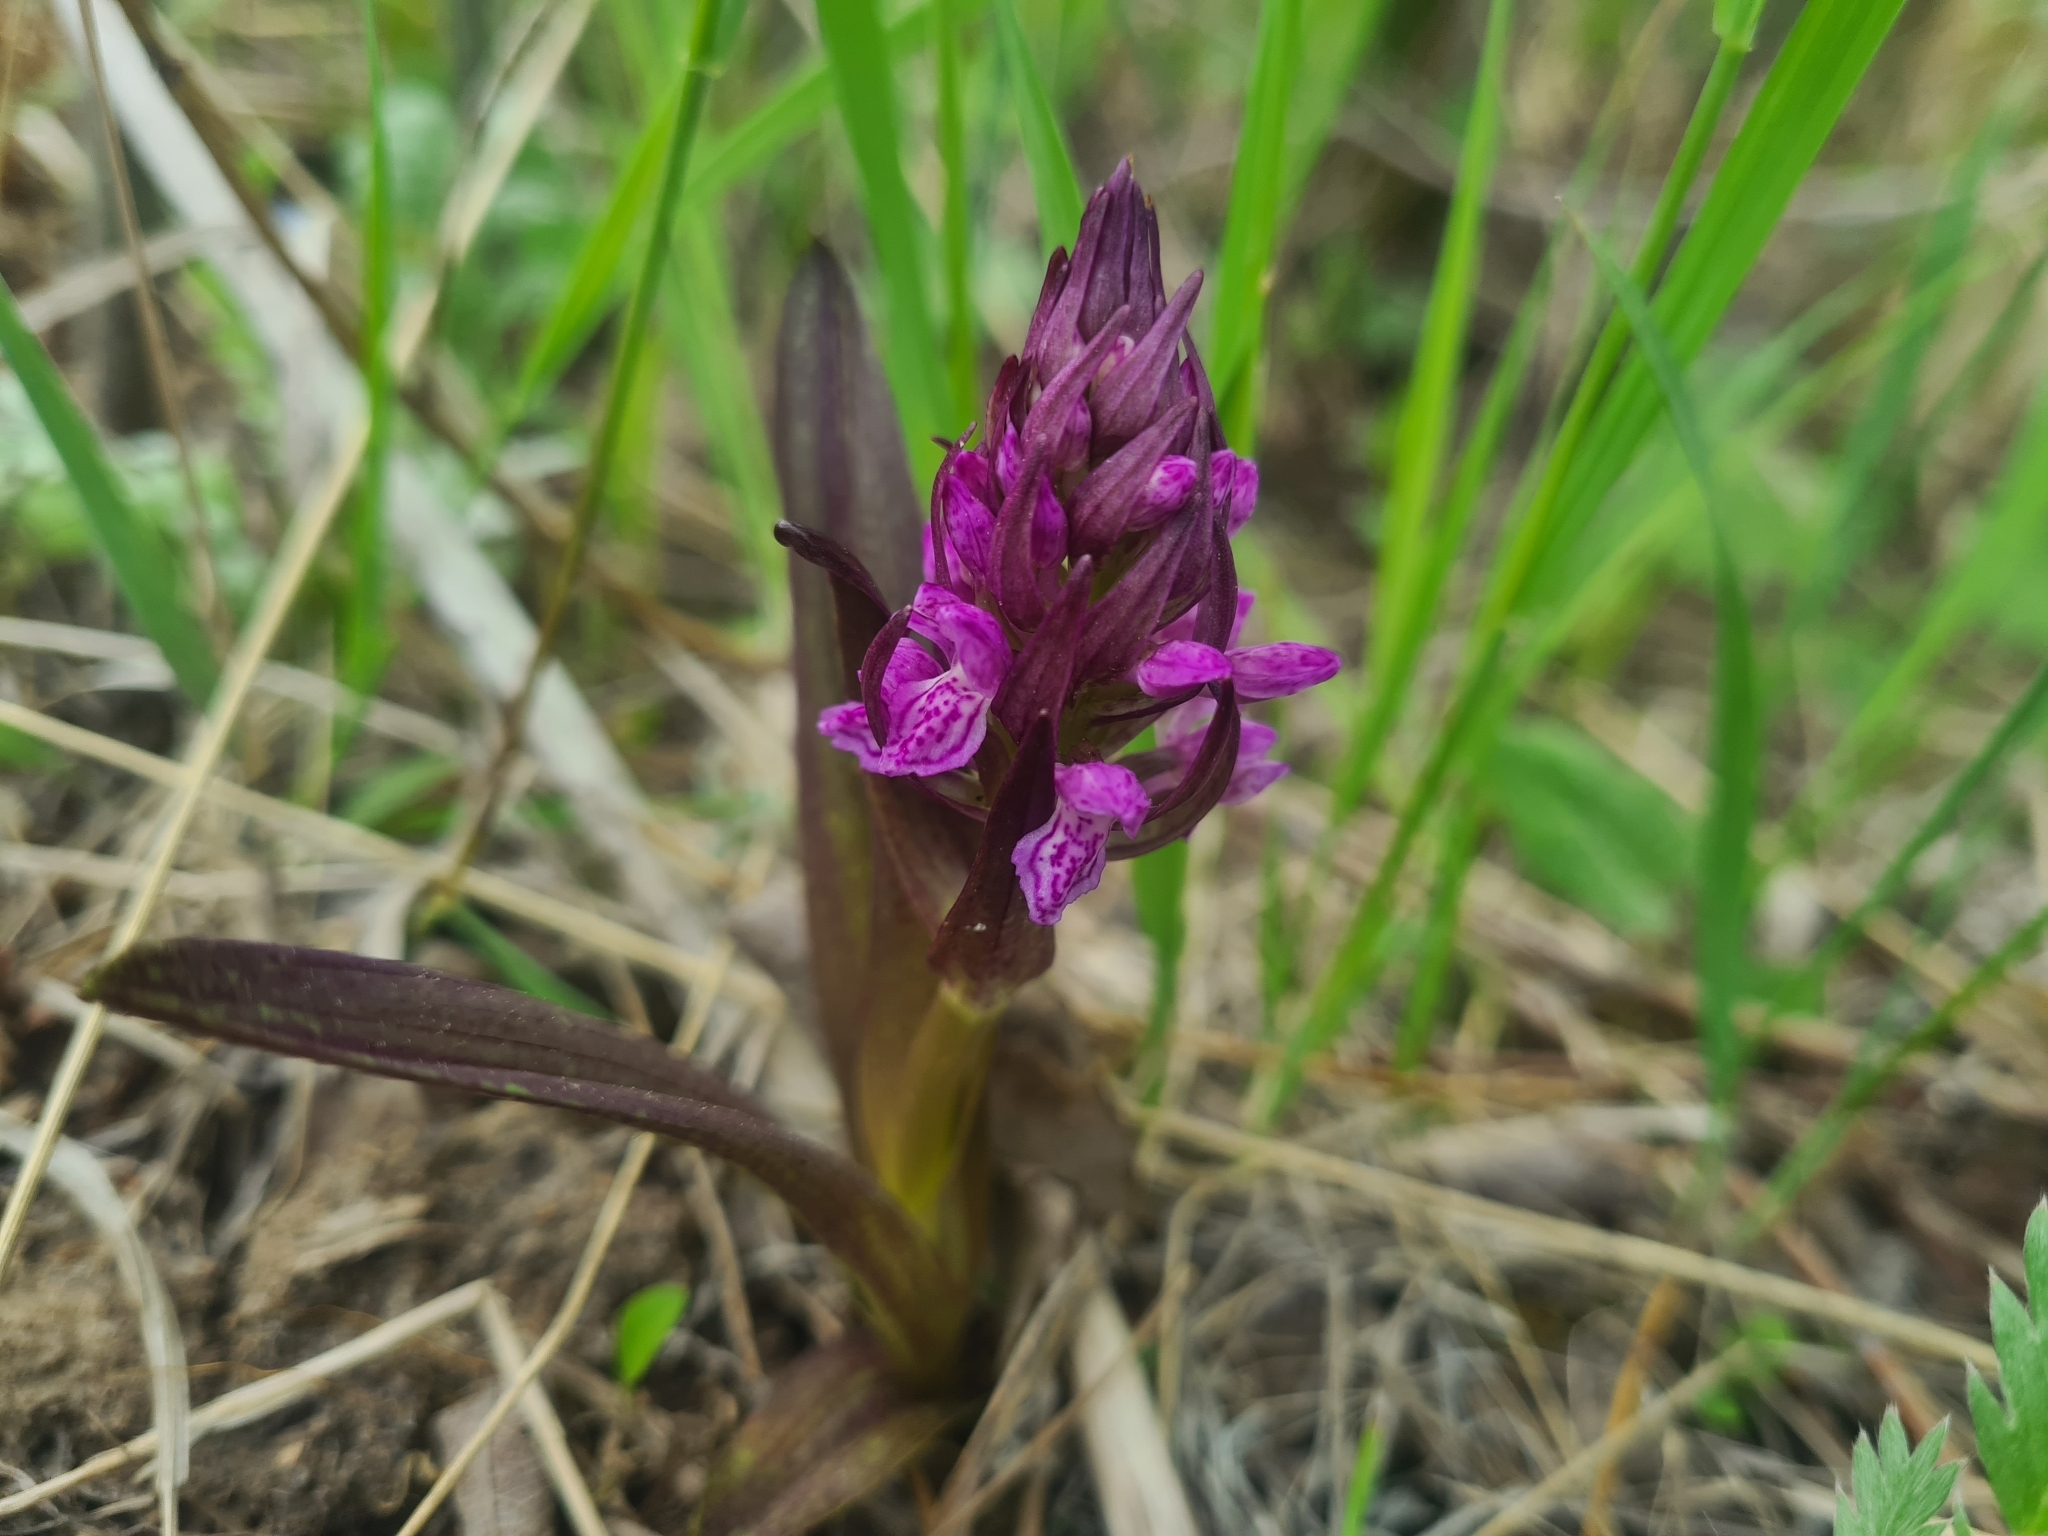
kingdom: Plantae
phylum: Tracheophyta
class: Liliopsida
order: Asparagales
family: Orchidaceae
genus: Dactylorhiza
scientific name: Dactylorhiza incarnata
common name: Early marsh-orchid
